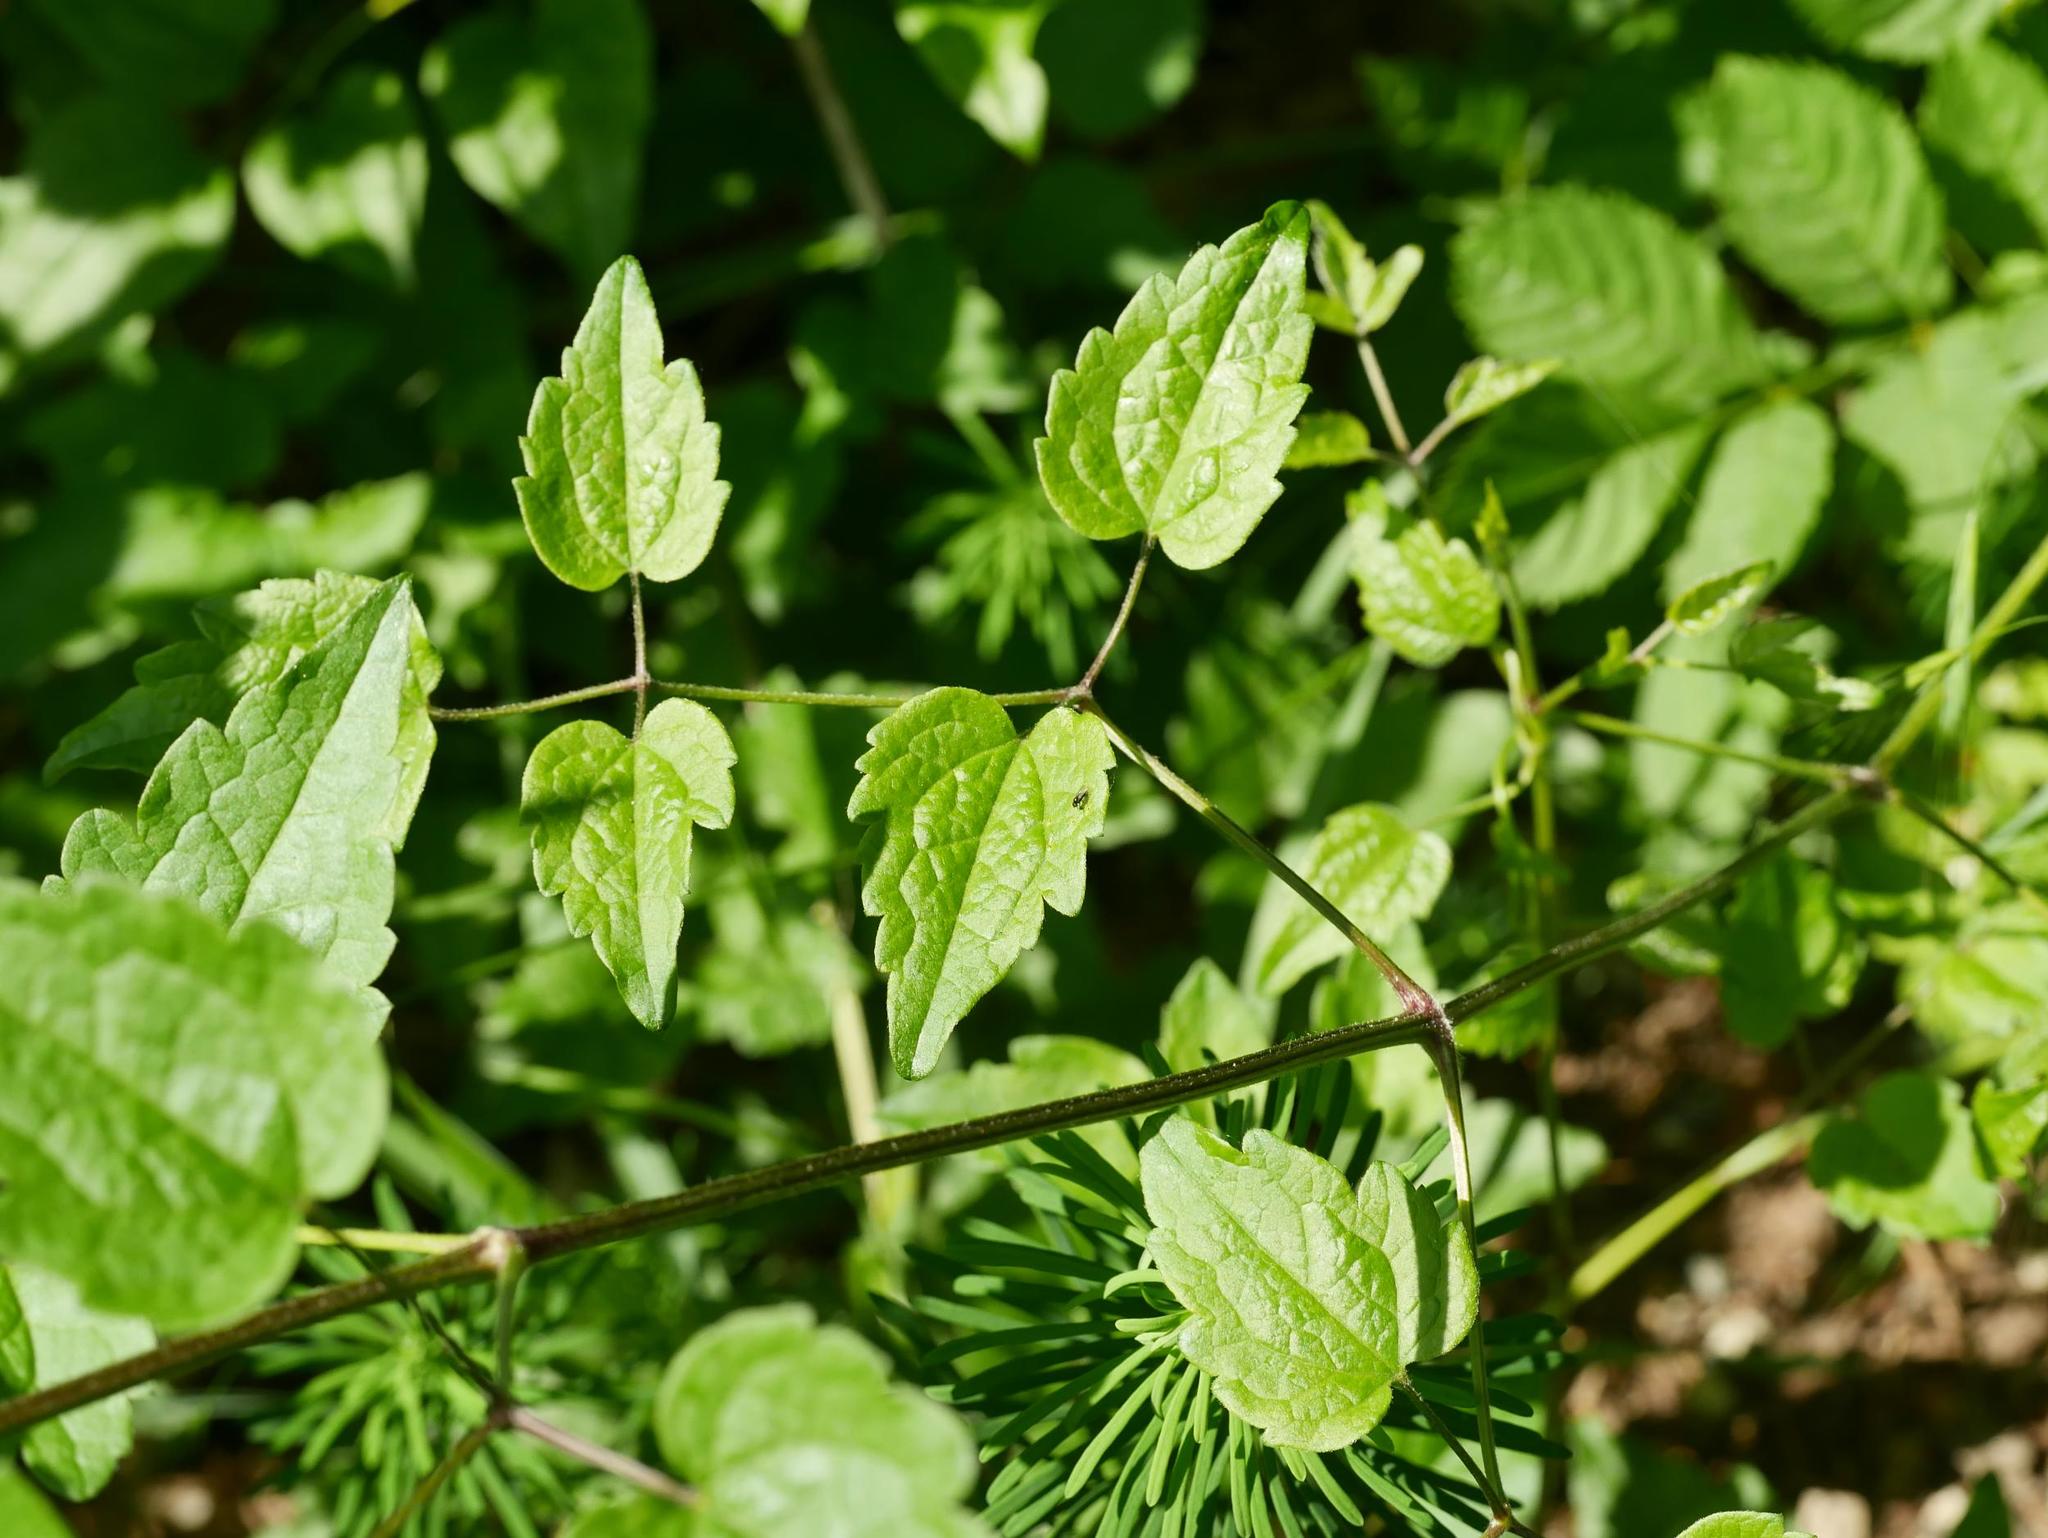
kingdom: Plantae
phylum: Tracheophyta
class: Magnoliopsida
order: Ranunculales
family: Ranunculaceae
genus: Clematis
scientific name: Clematis vitalba
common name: Evergreen clematis
